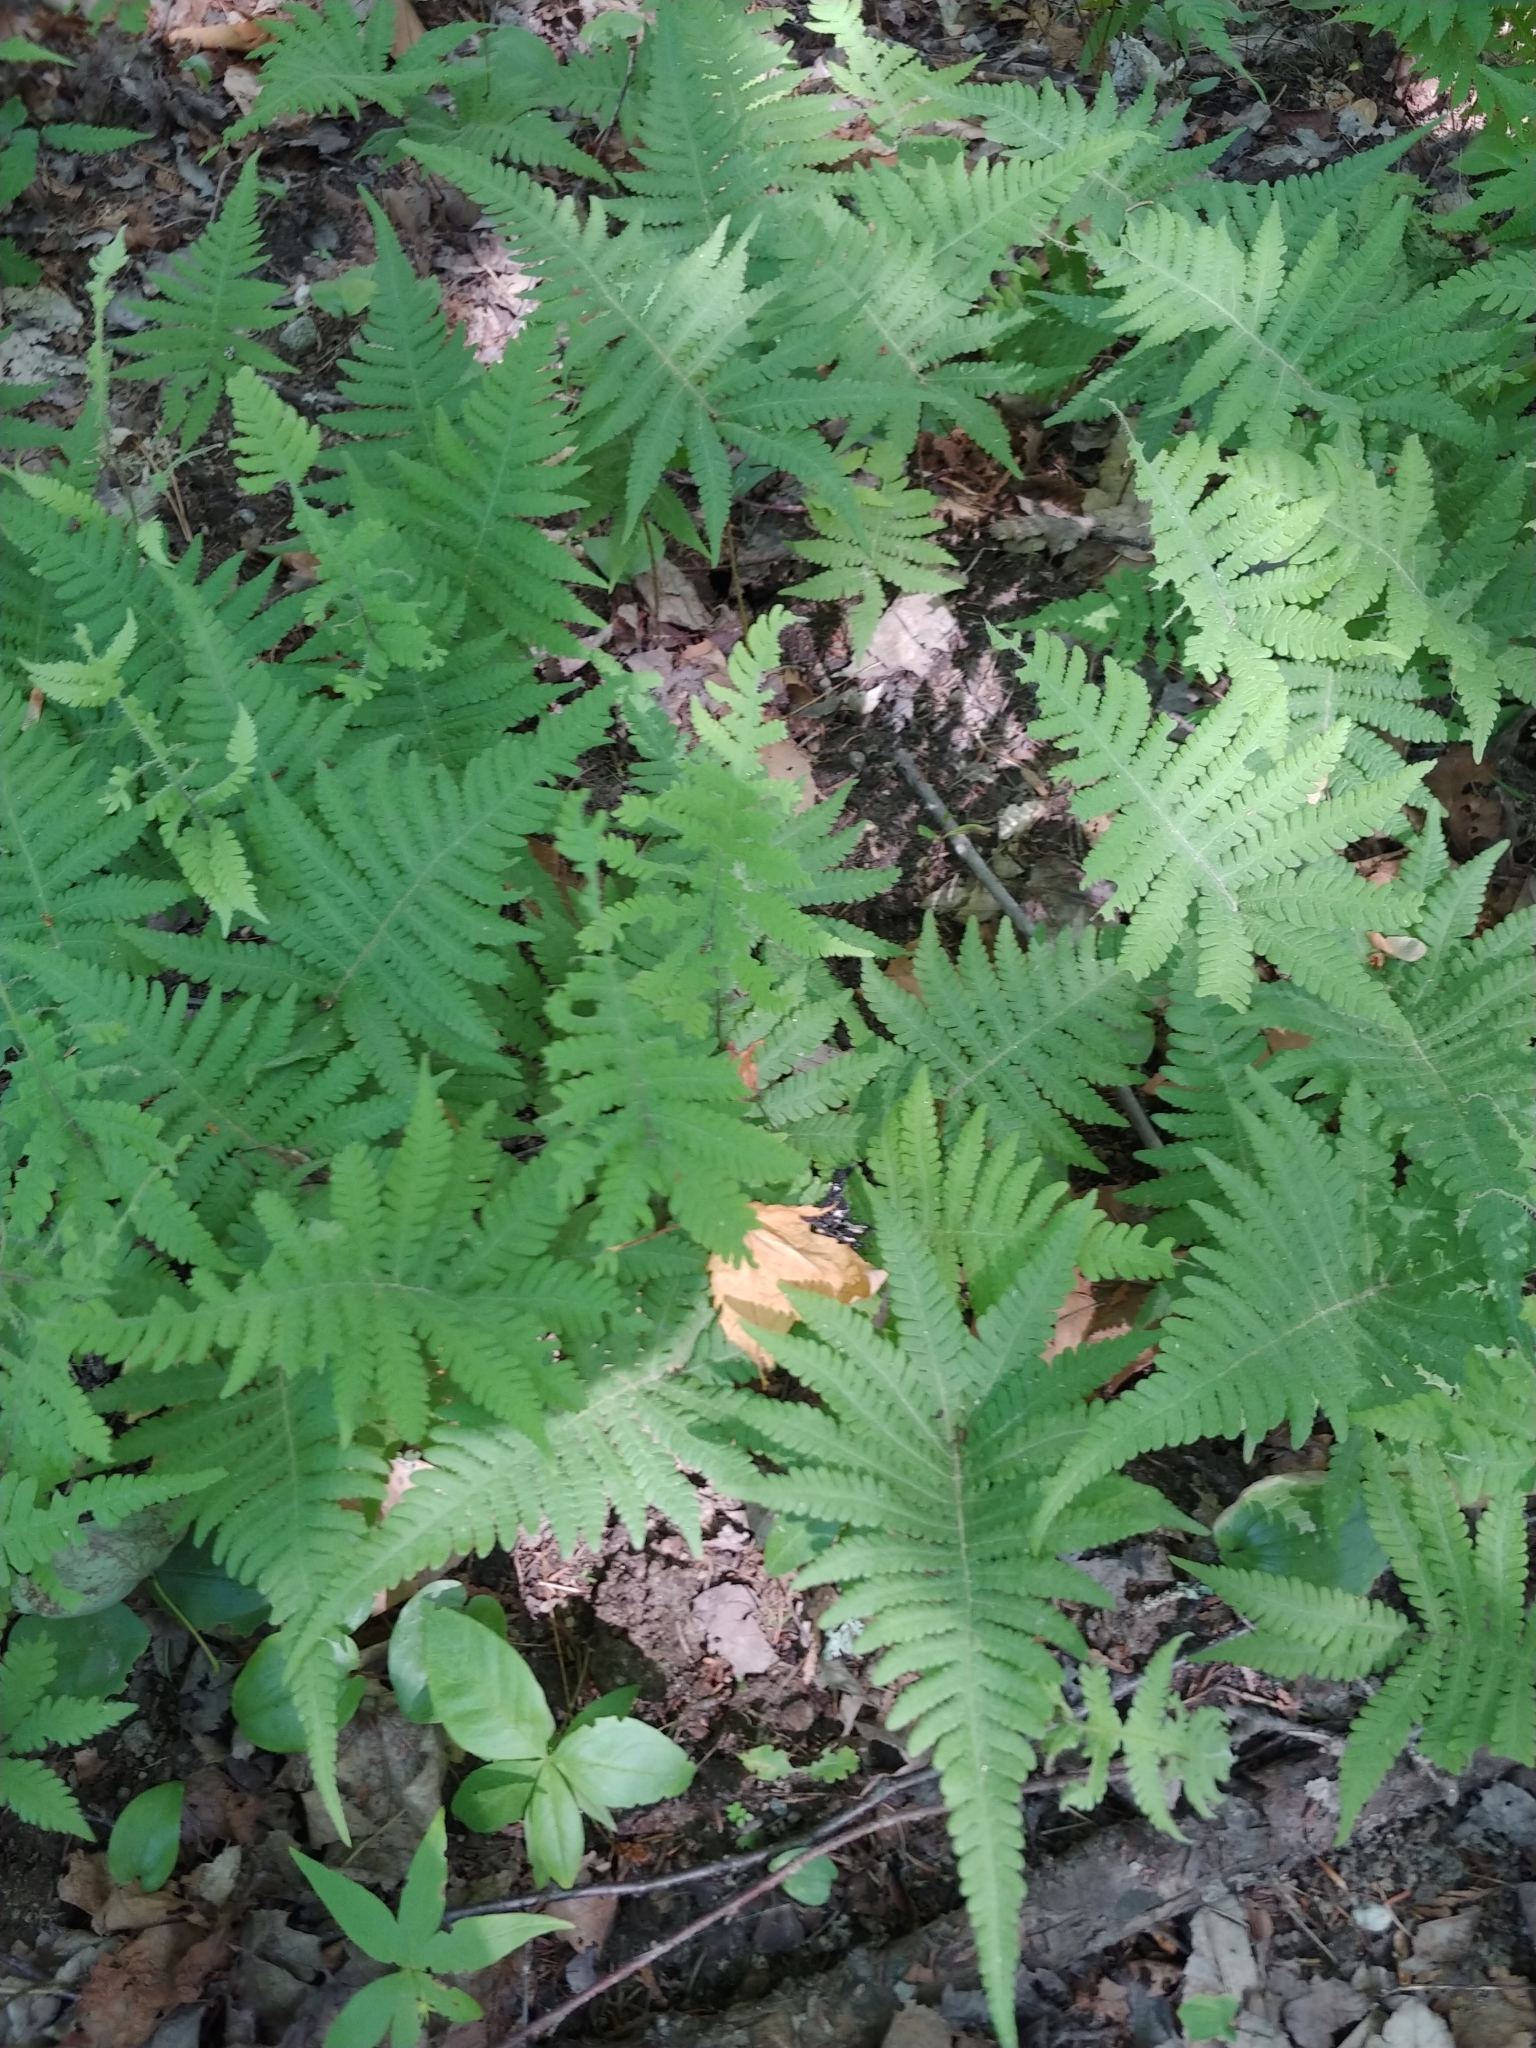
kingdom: Plantae
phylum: Tracheophyta
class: Polypodiopsida
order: Polypodiales
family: Thelypteridaceae
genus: Phegopteris
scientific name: Phegopteris connectilis
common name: Beech fern
